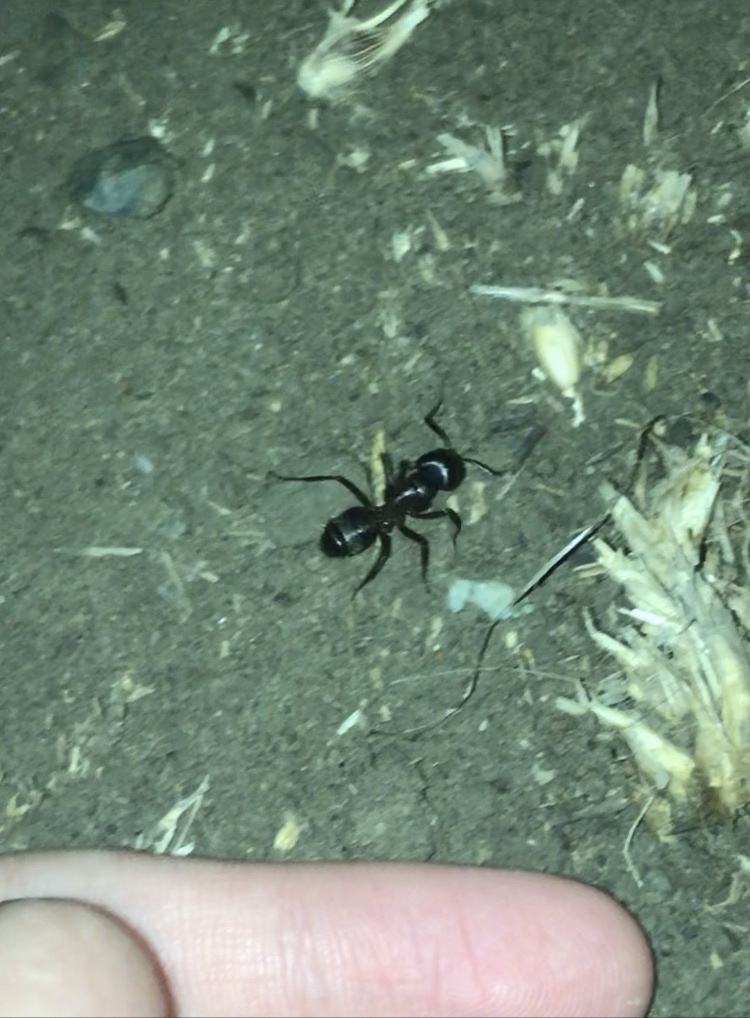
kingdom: Animalia
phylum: Arthropoda
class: Insecta
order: Hymenoptera
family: Formicidae
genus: Camponotus
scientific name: Camponotus vicinus
